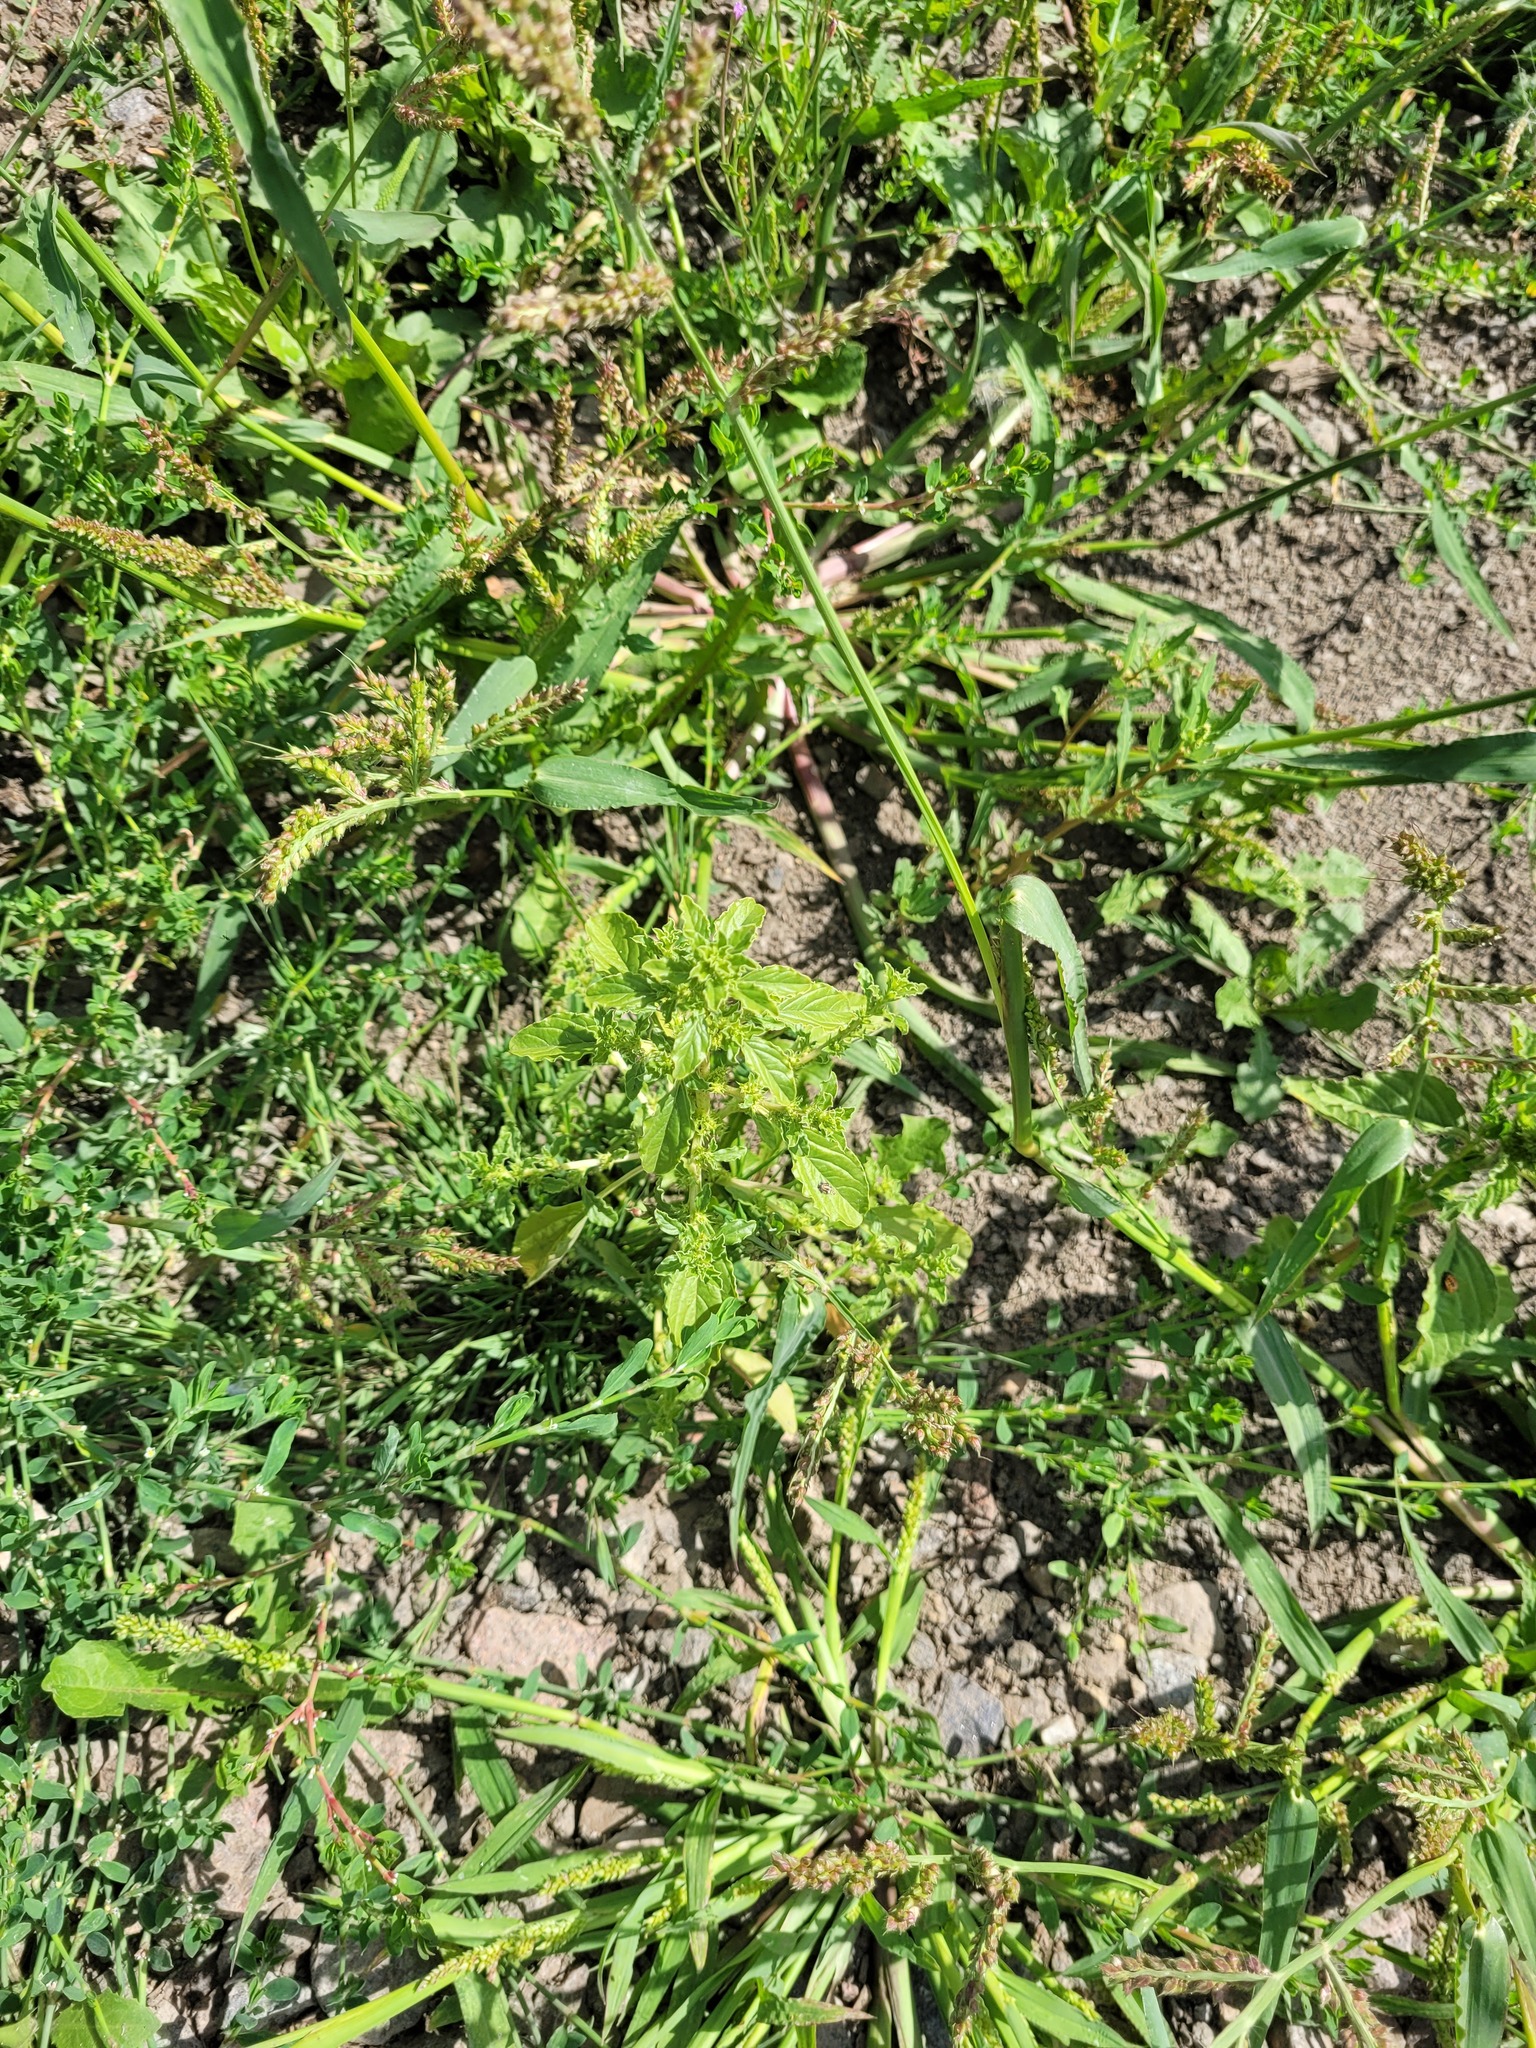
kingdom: Plantae
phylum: Tracheophyta
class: Magnoliopsida
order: Caryophyllales
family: Amaranthaceae
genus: Amaranthus
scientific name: Amaranthus albus
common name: White pigweed
